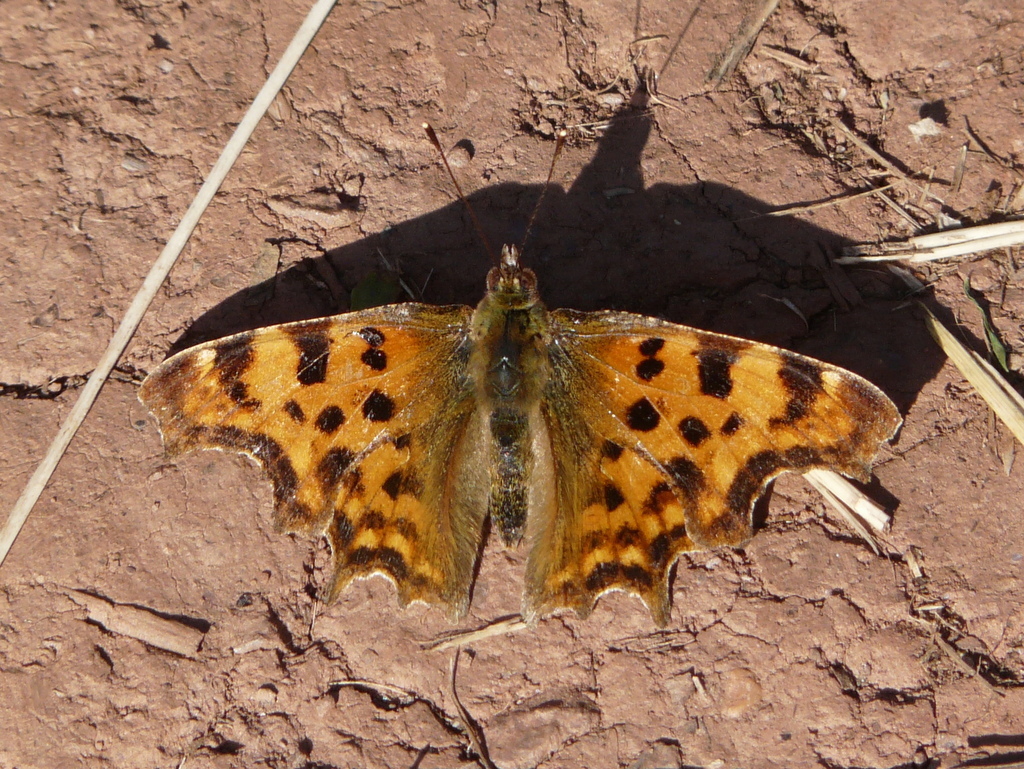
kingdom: Animalia
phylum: Arthropoda
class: Insecta
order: Lepidoptera
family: Nymphalidae
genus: Polygonia
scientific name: Polygonia c-album
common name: Comma
